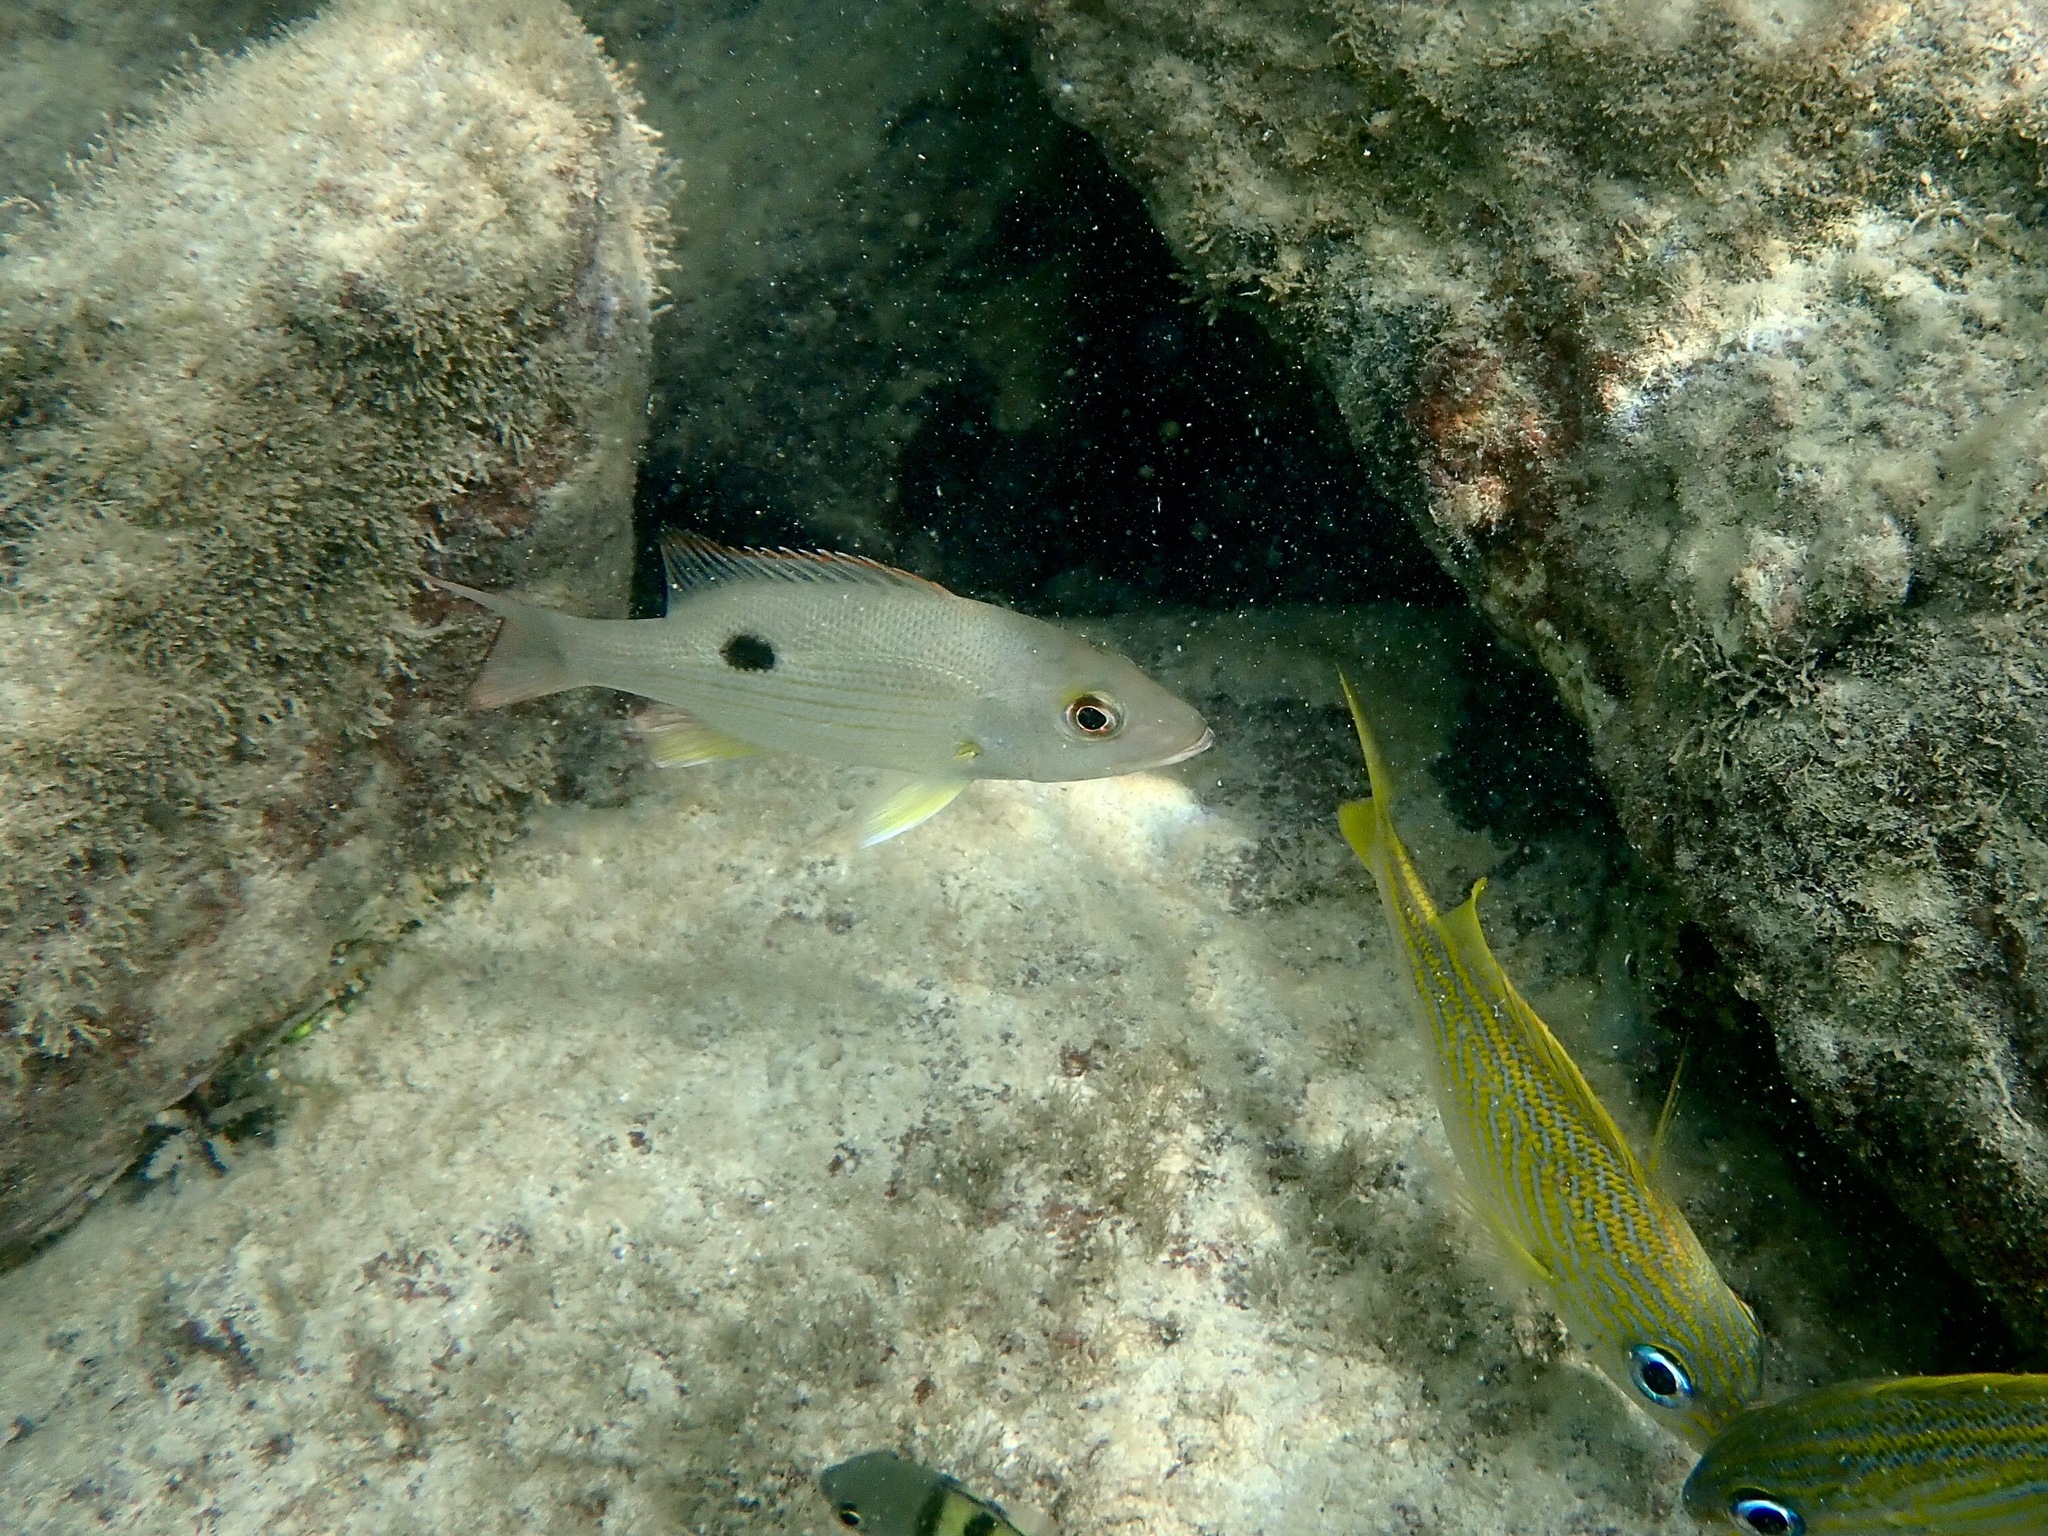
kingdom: Animalia
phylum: Chordata
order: Perciformes
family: Lutjanidae
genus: Lutjanus
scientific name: Lutjanus mahogoni
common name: Spot snapper
